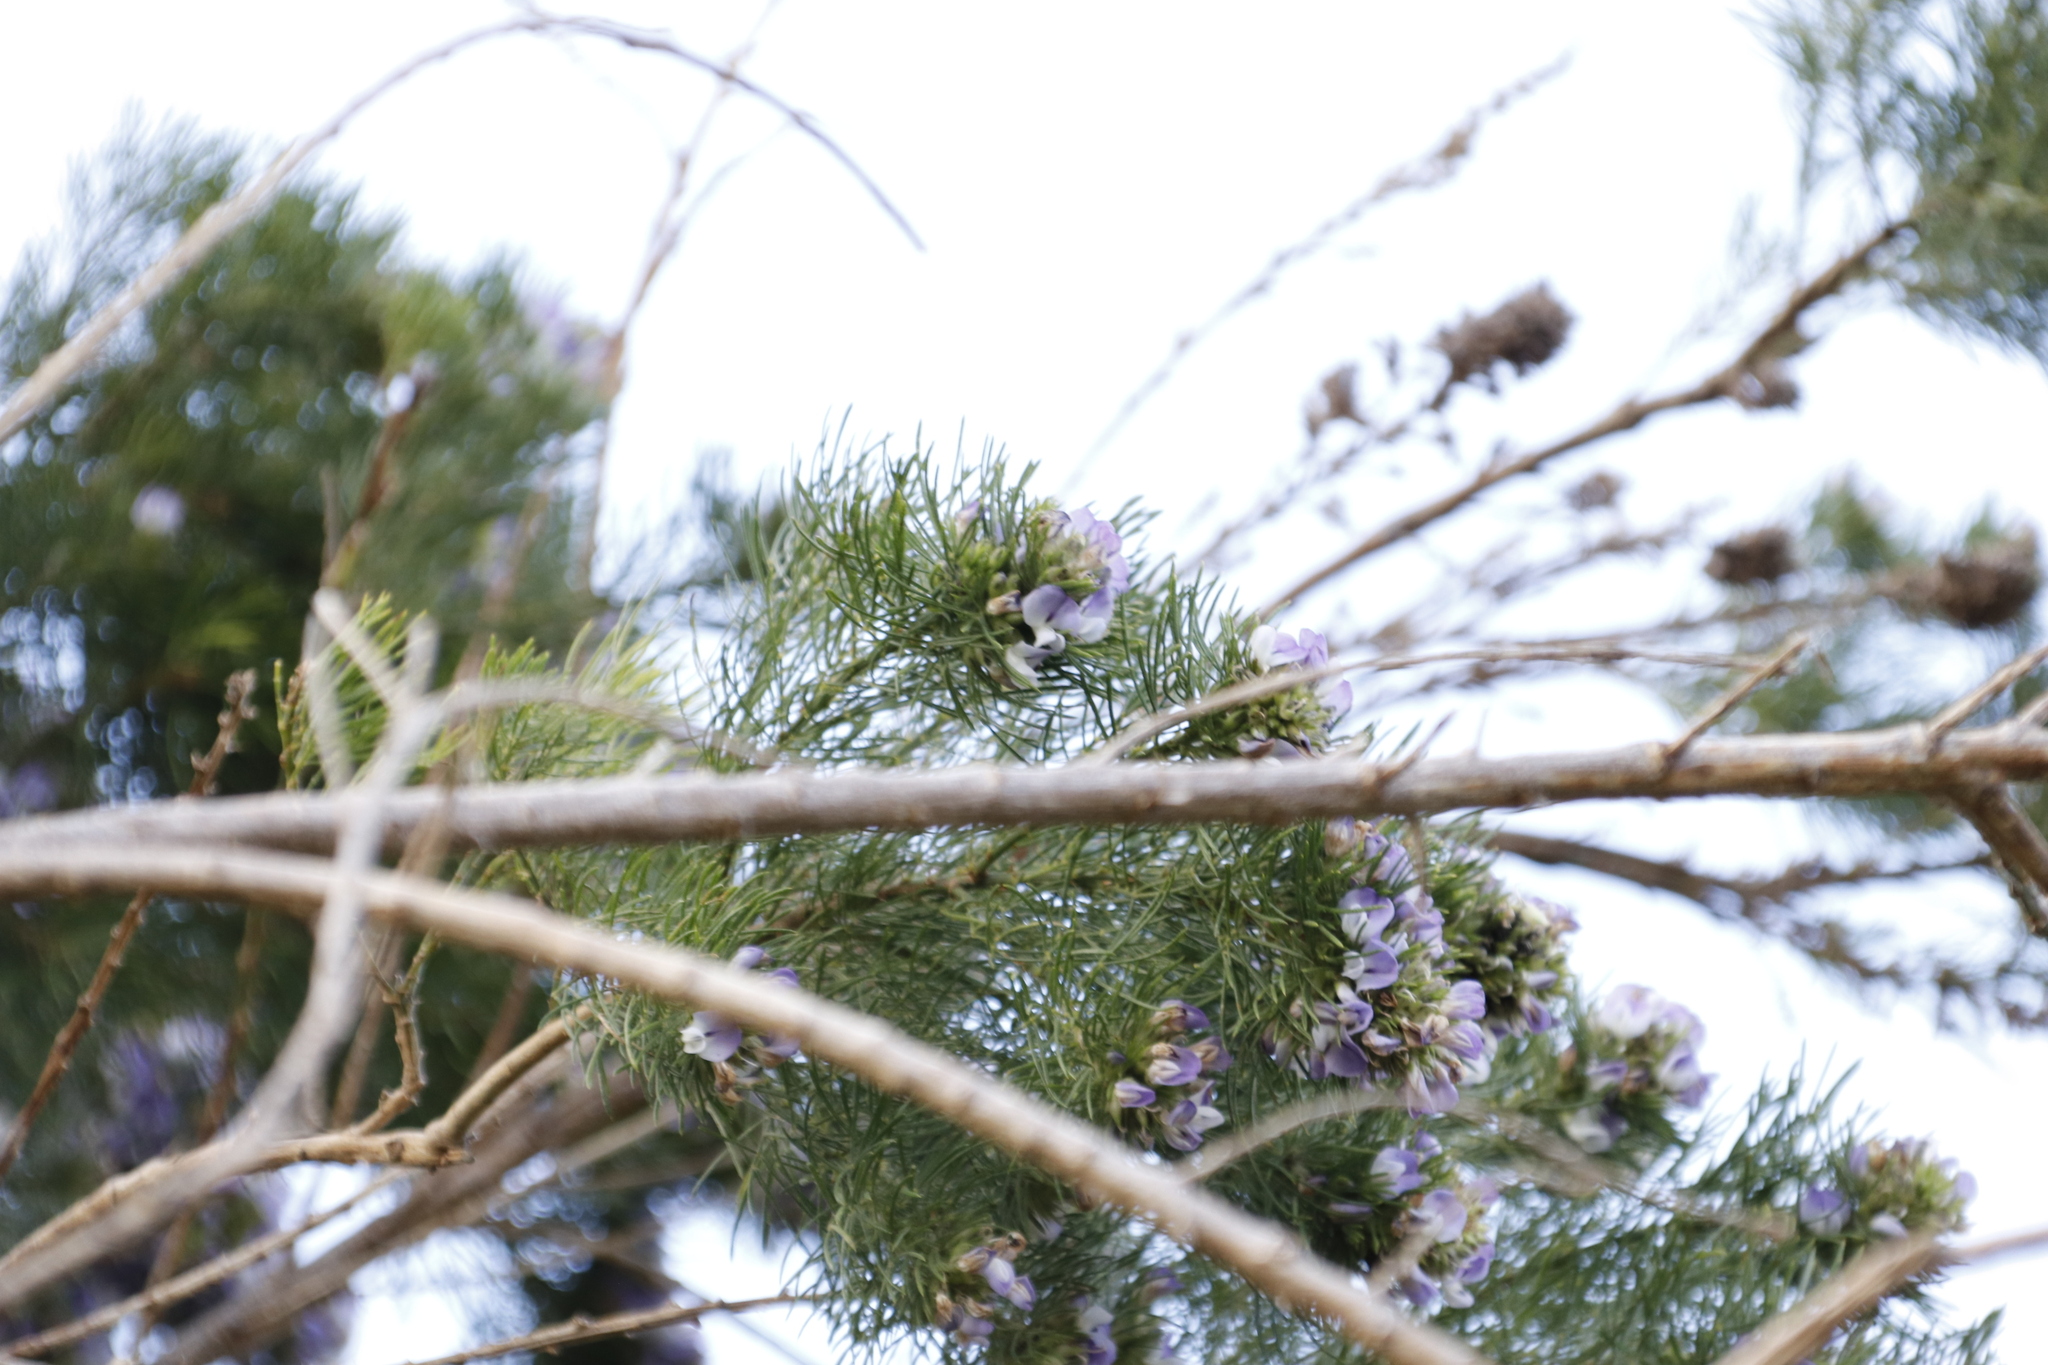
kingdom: Plantae
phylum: Tracheophyta
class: Magnoliopsida
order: Fabales
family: Fabaceae
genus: Psoralea
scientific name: Psoralea pinnata
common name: African scurfpea
